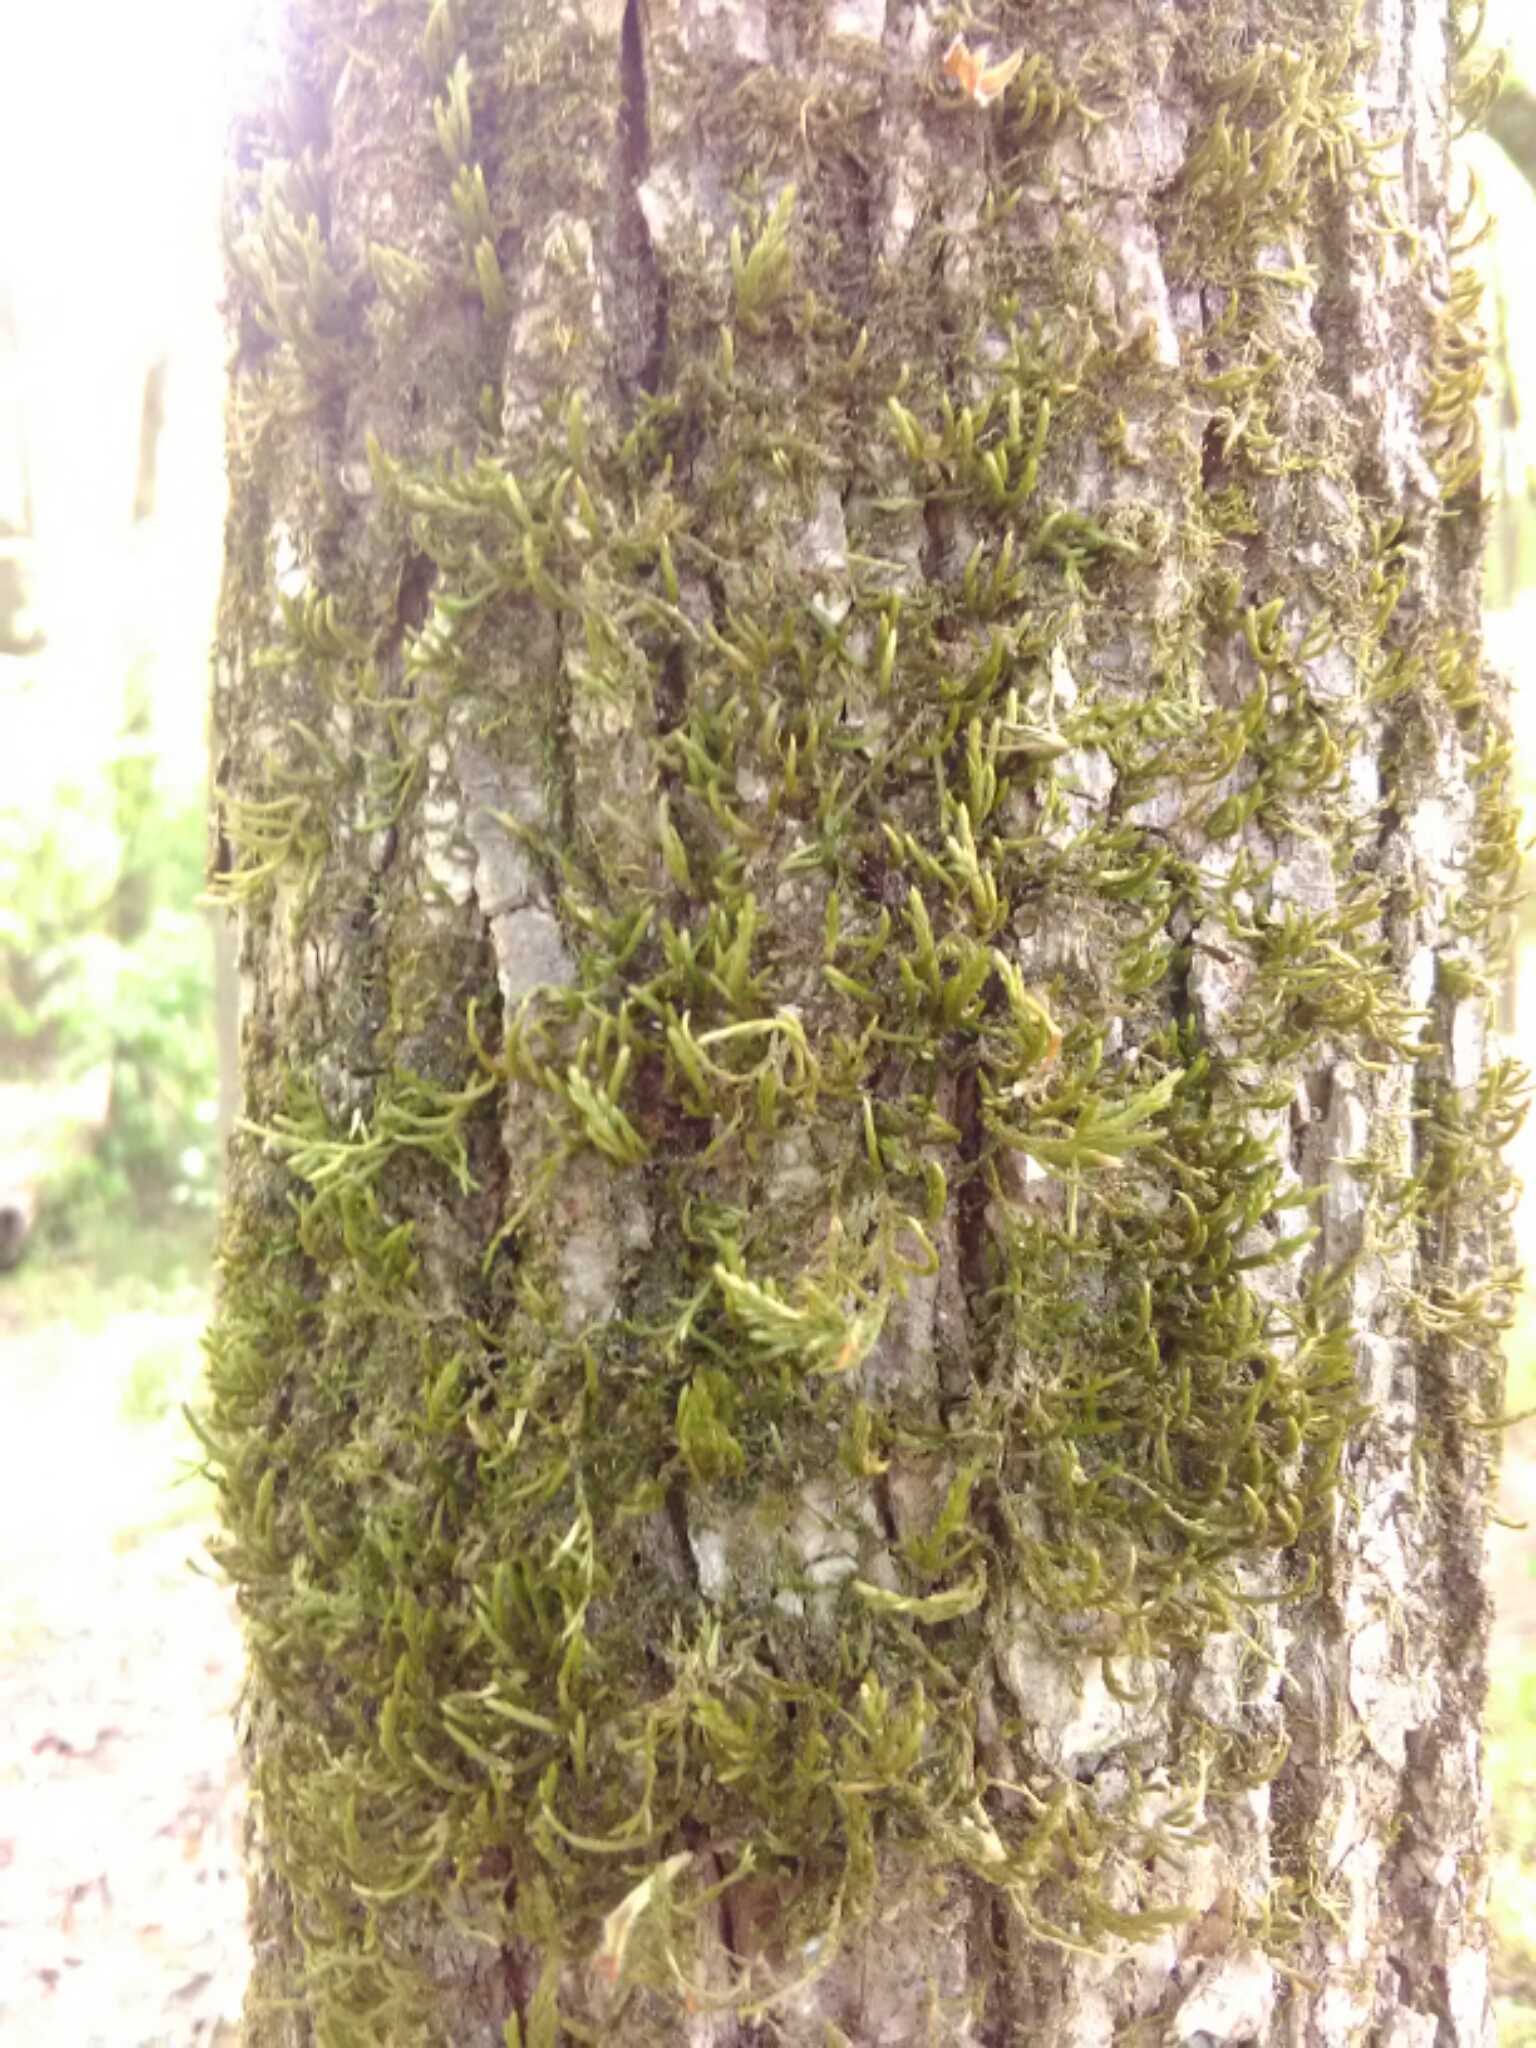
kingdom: Plantae
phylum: Bryophyta
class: Bryopsida
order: Hypnales
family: Leucodontaceae
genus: Leucodon
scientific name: Leucodon julaceus
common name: Smooth hook moss
